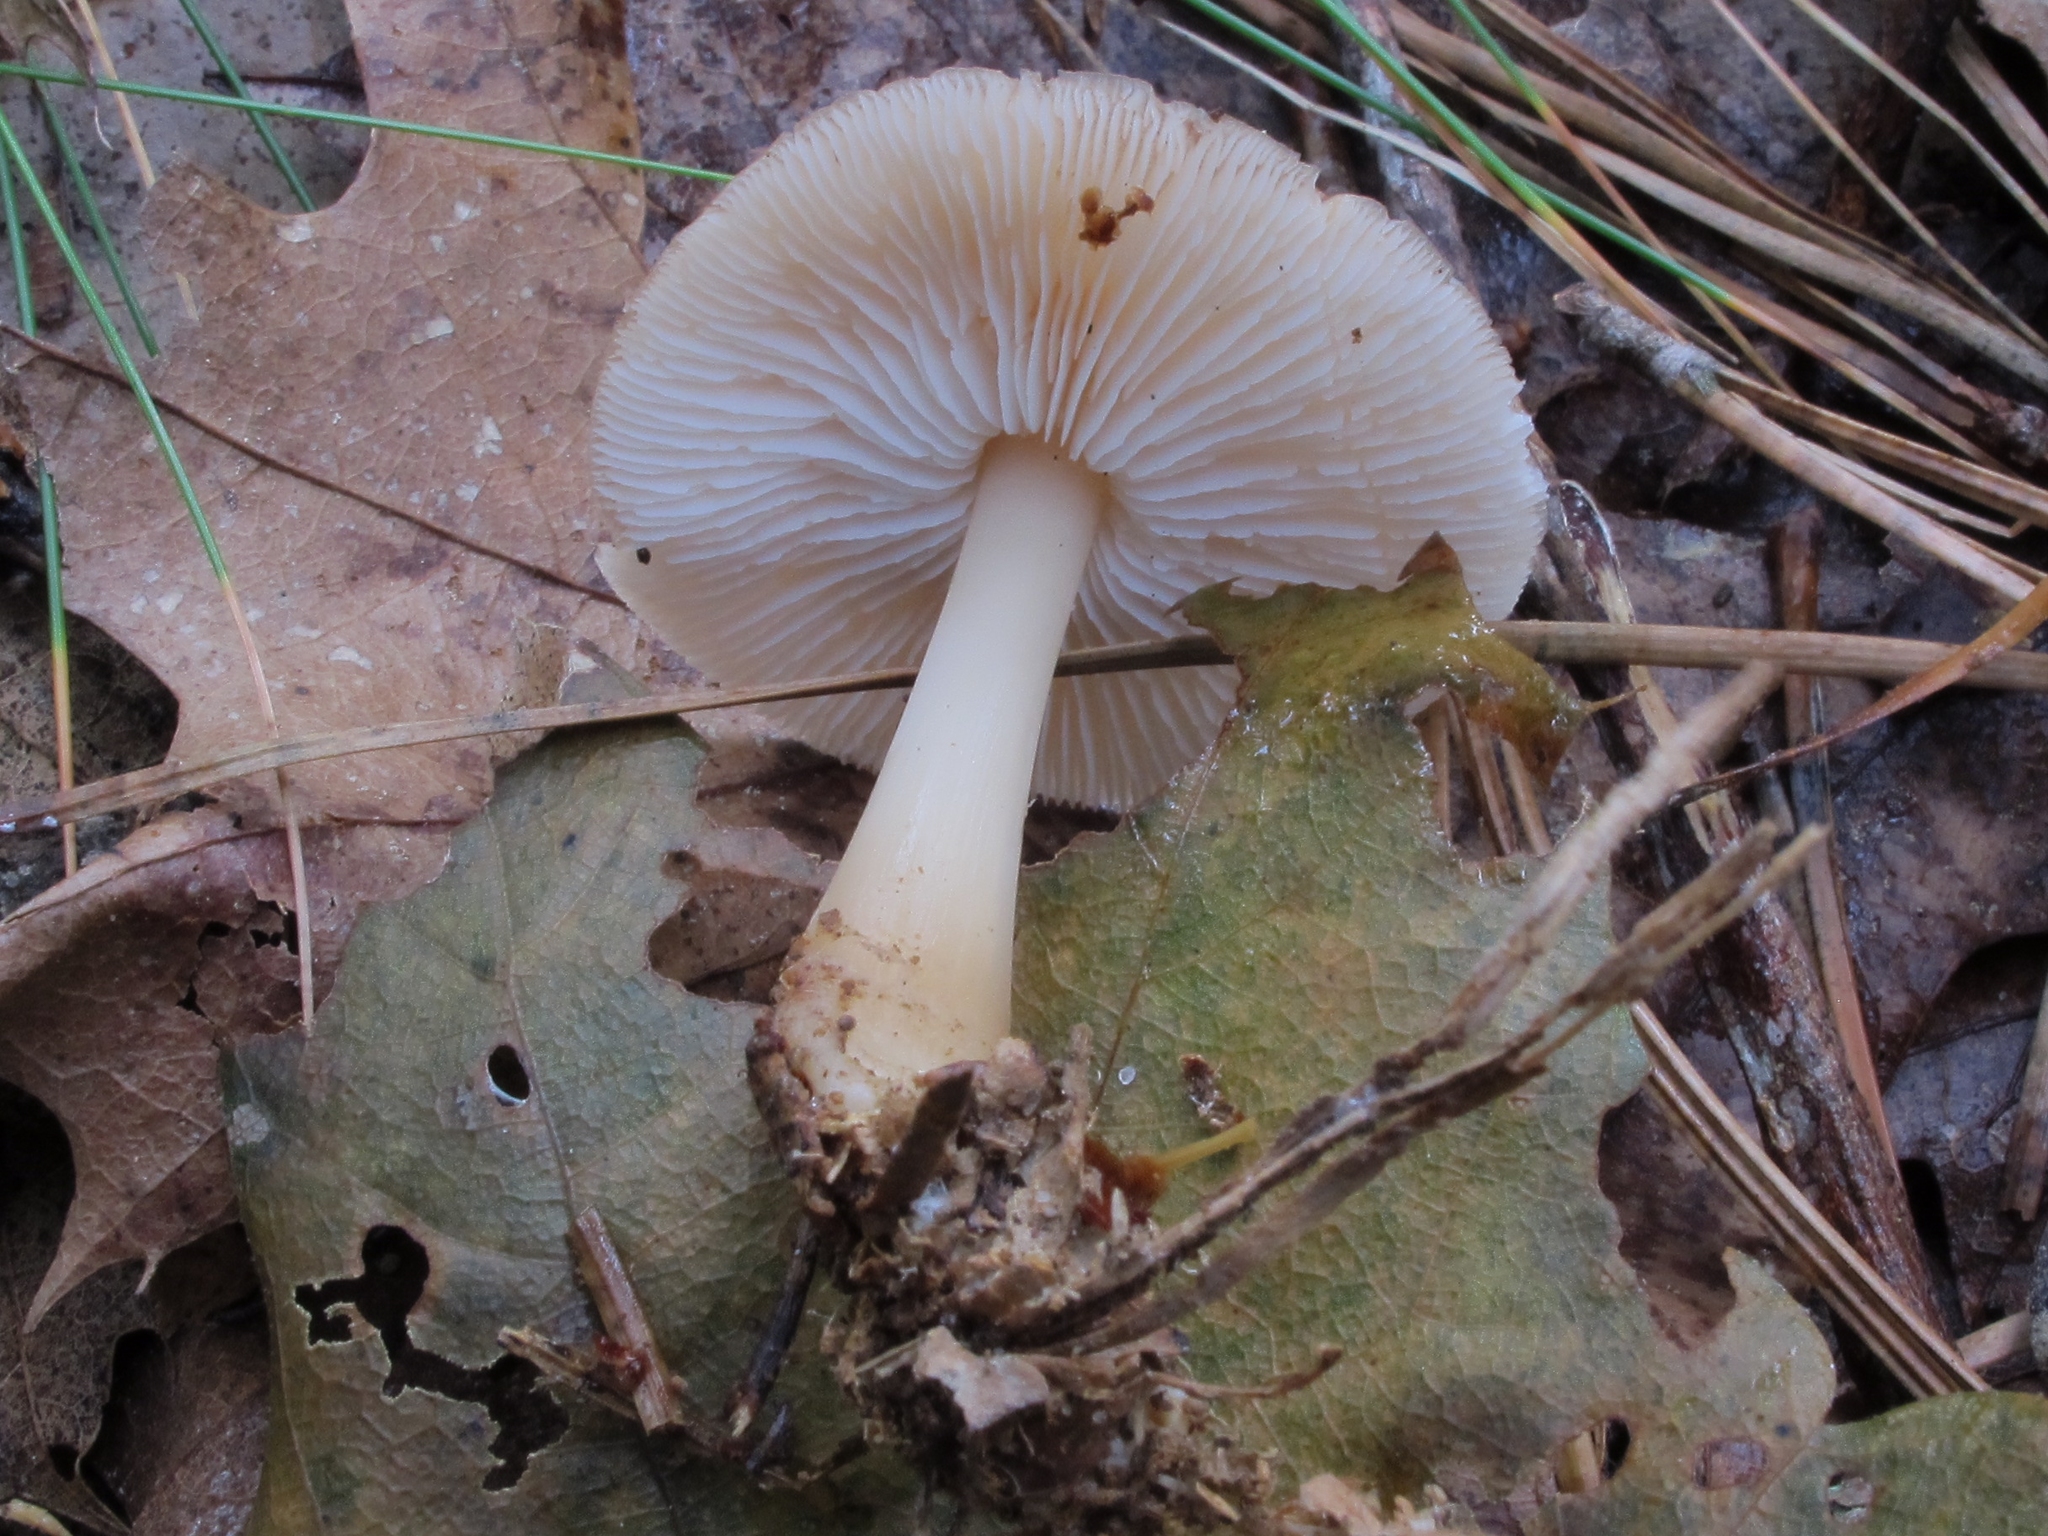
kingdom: Fungi
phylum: Basidiomycota
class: Agaricomycetes
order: Agaricales
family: Omphalotaceae
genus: Rhodocollybia
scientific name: Rhodocollybia butyracea
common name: Butter cap
